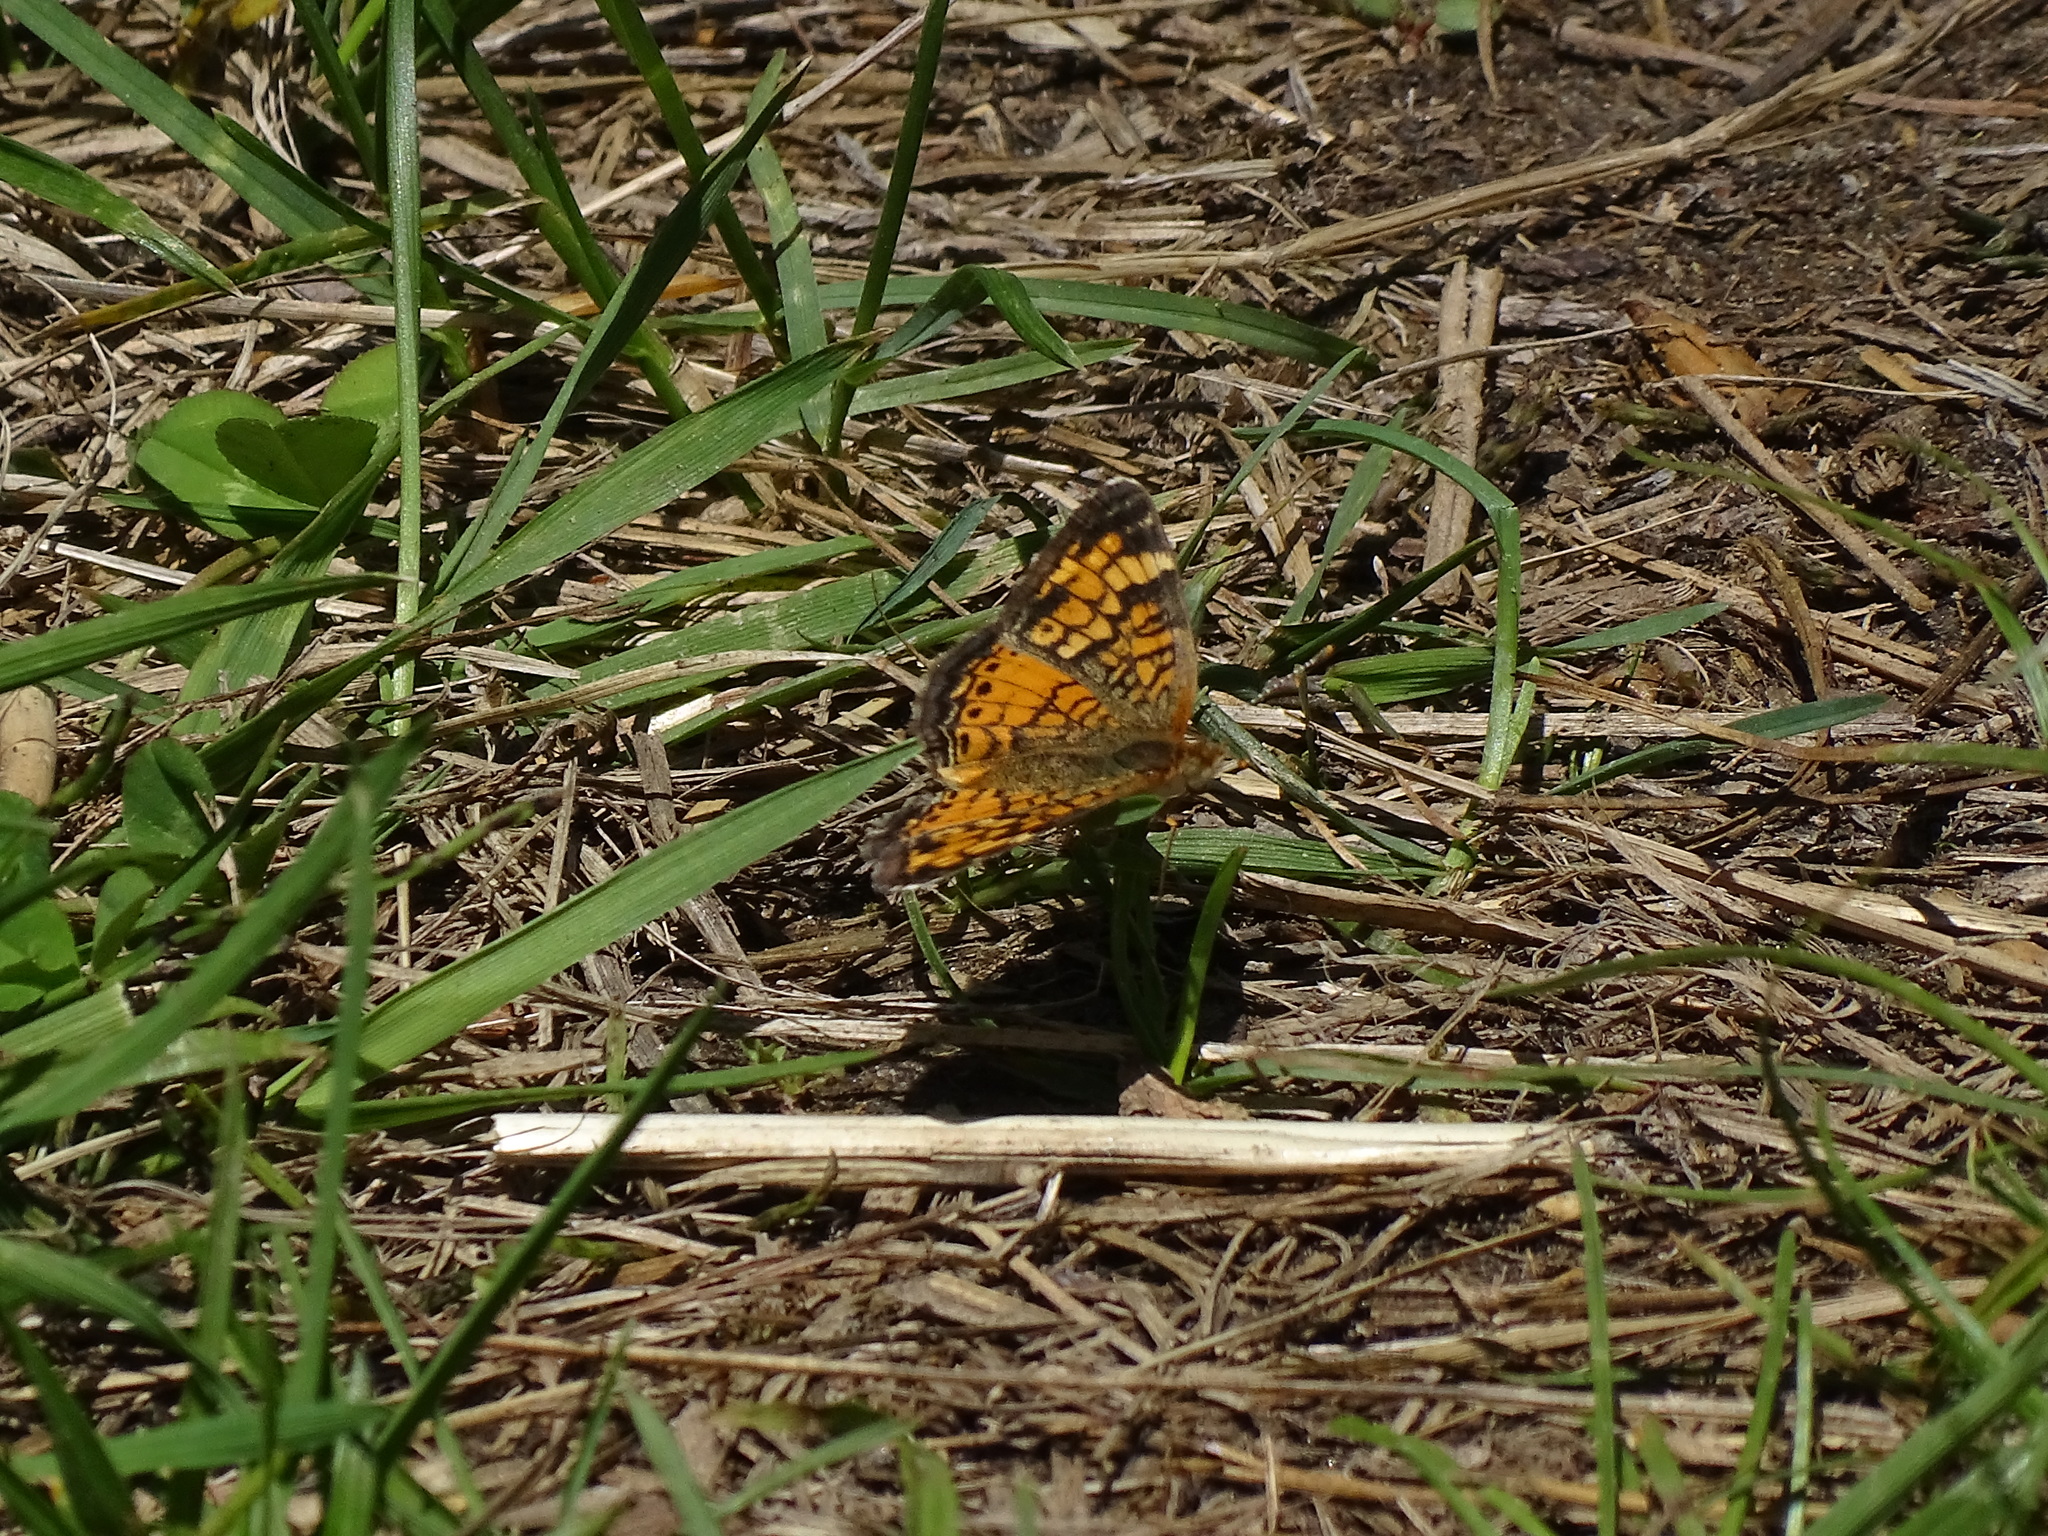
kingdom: Animalia
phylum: Arthropoda
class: Insecta
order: Lepidoptera
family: Nymphalidae
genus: Phyciodes
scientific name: Phyciodes tharos
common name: Pearl crescent
